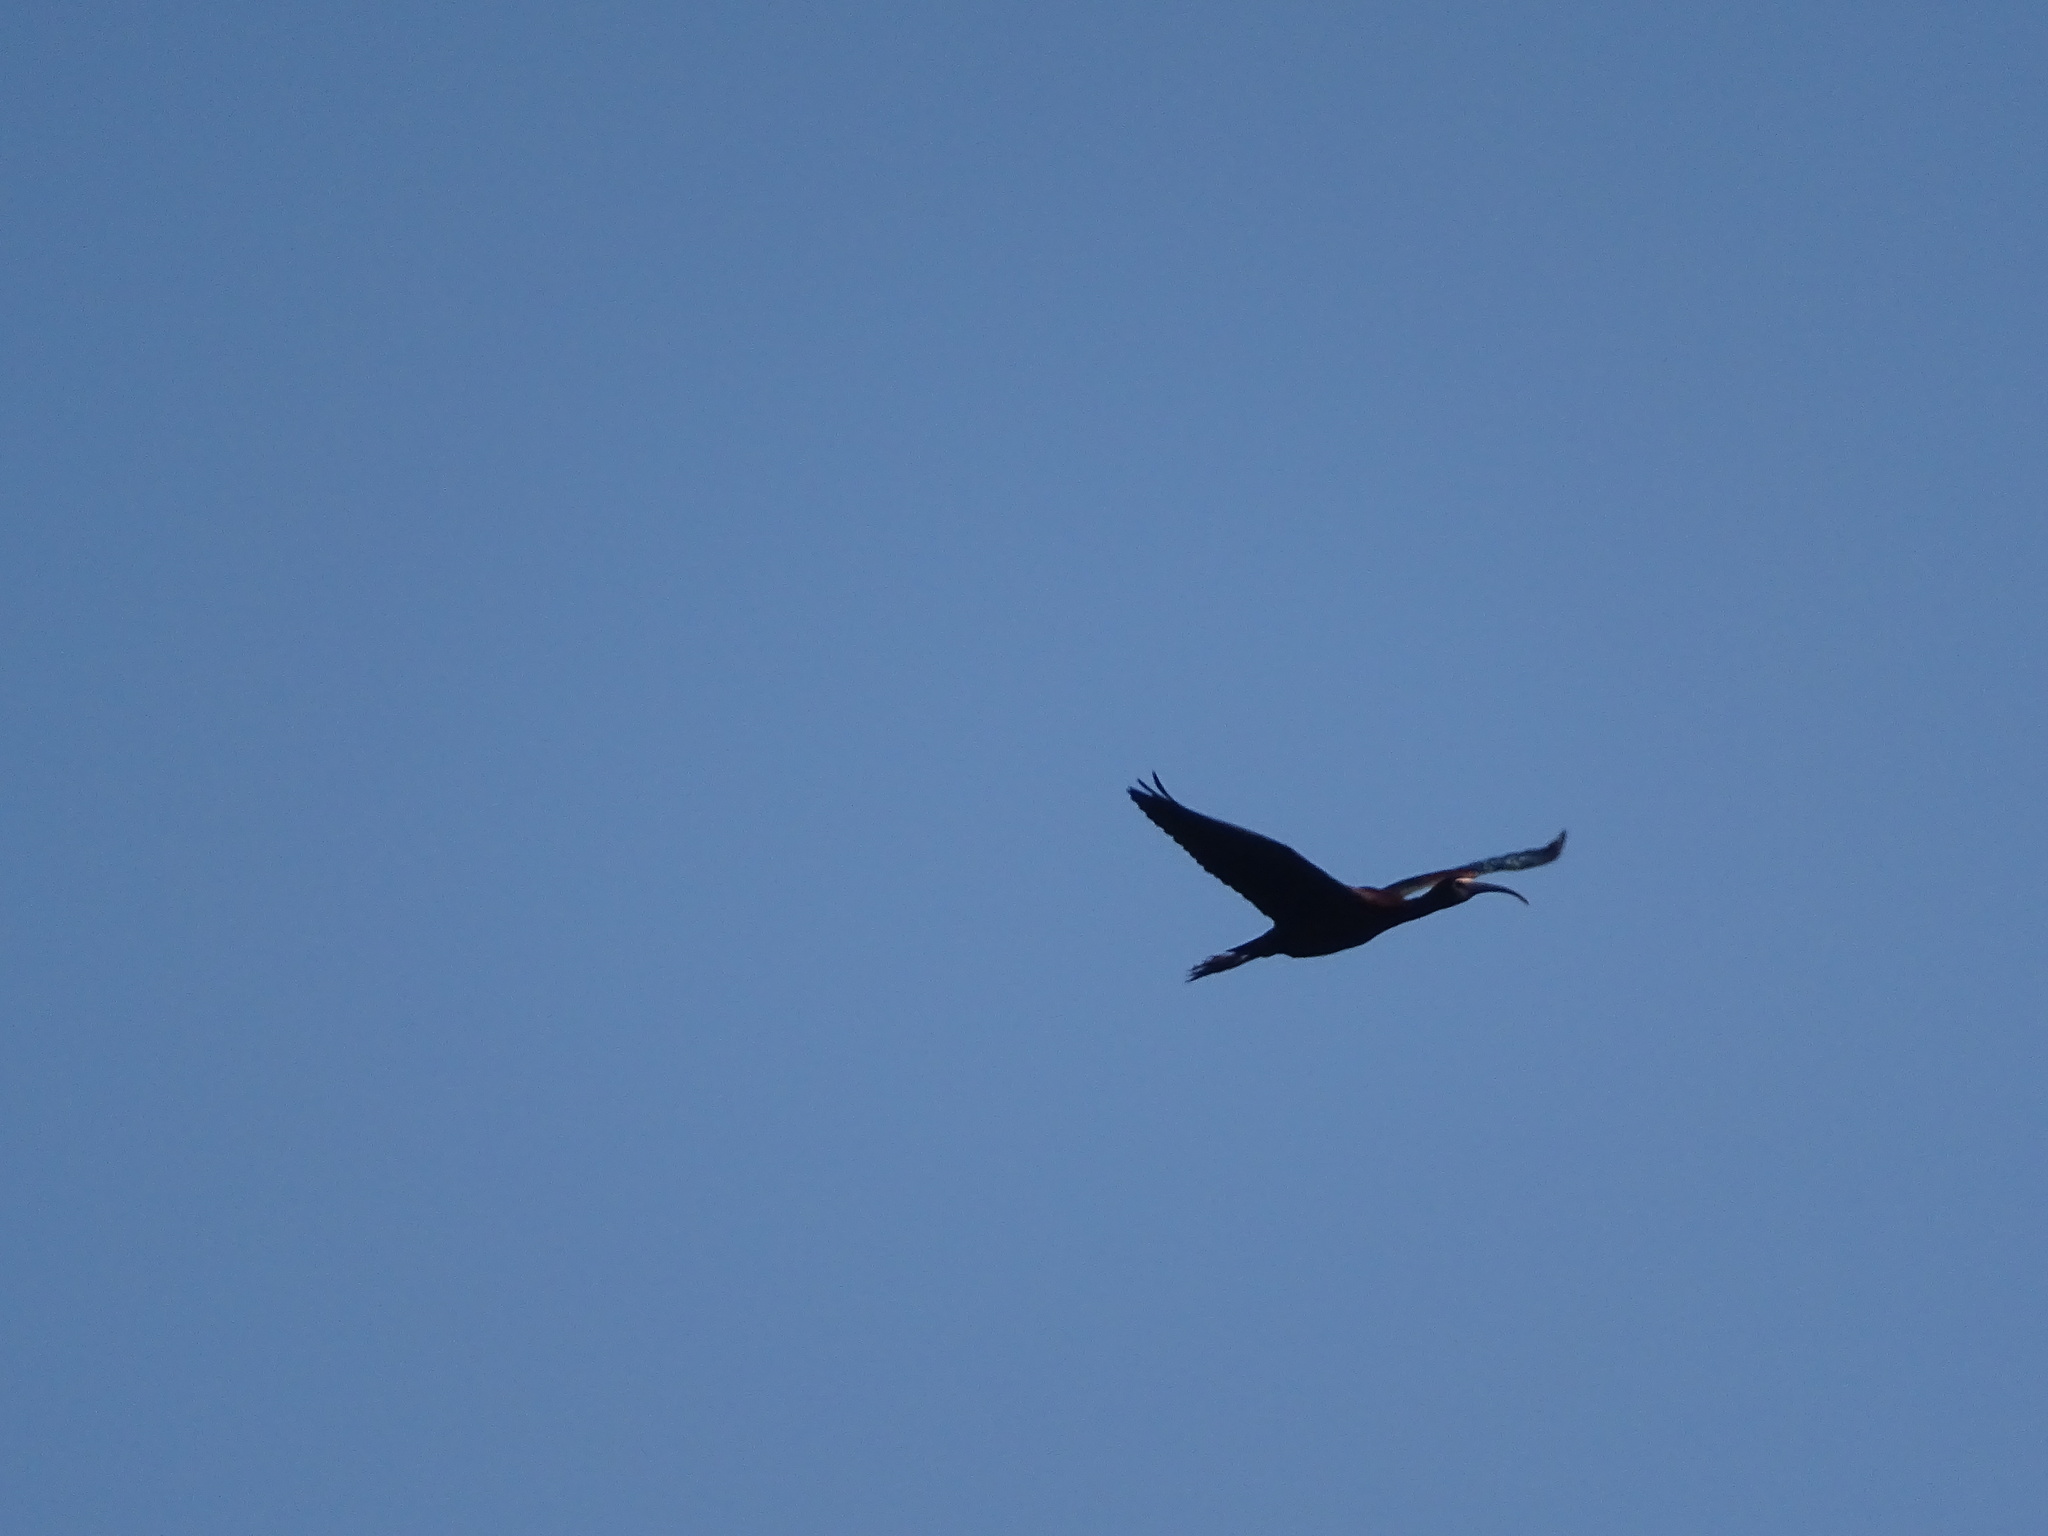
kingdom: Animalia
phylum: Chordata
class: Aves
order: Pelecaniformes
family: Threskiornithidae
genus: Plegadis
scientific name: Plegadis chihi
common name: White-faced ibis
